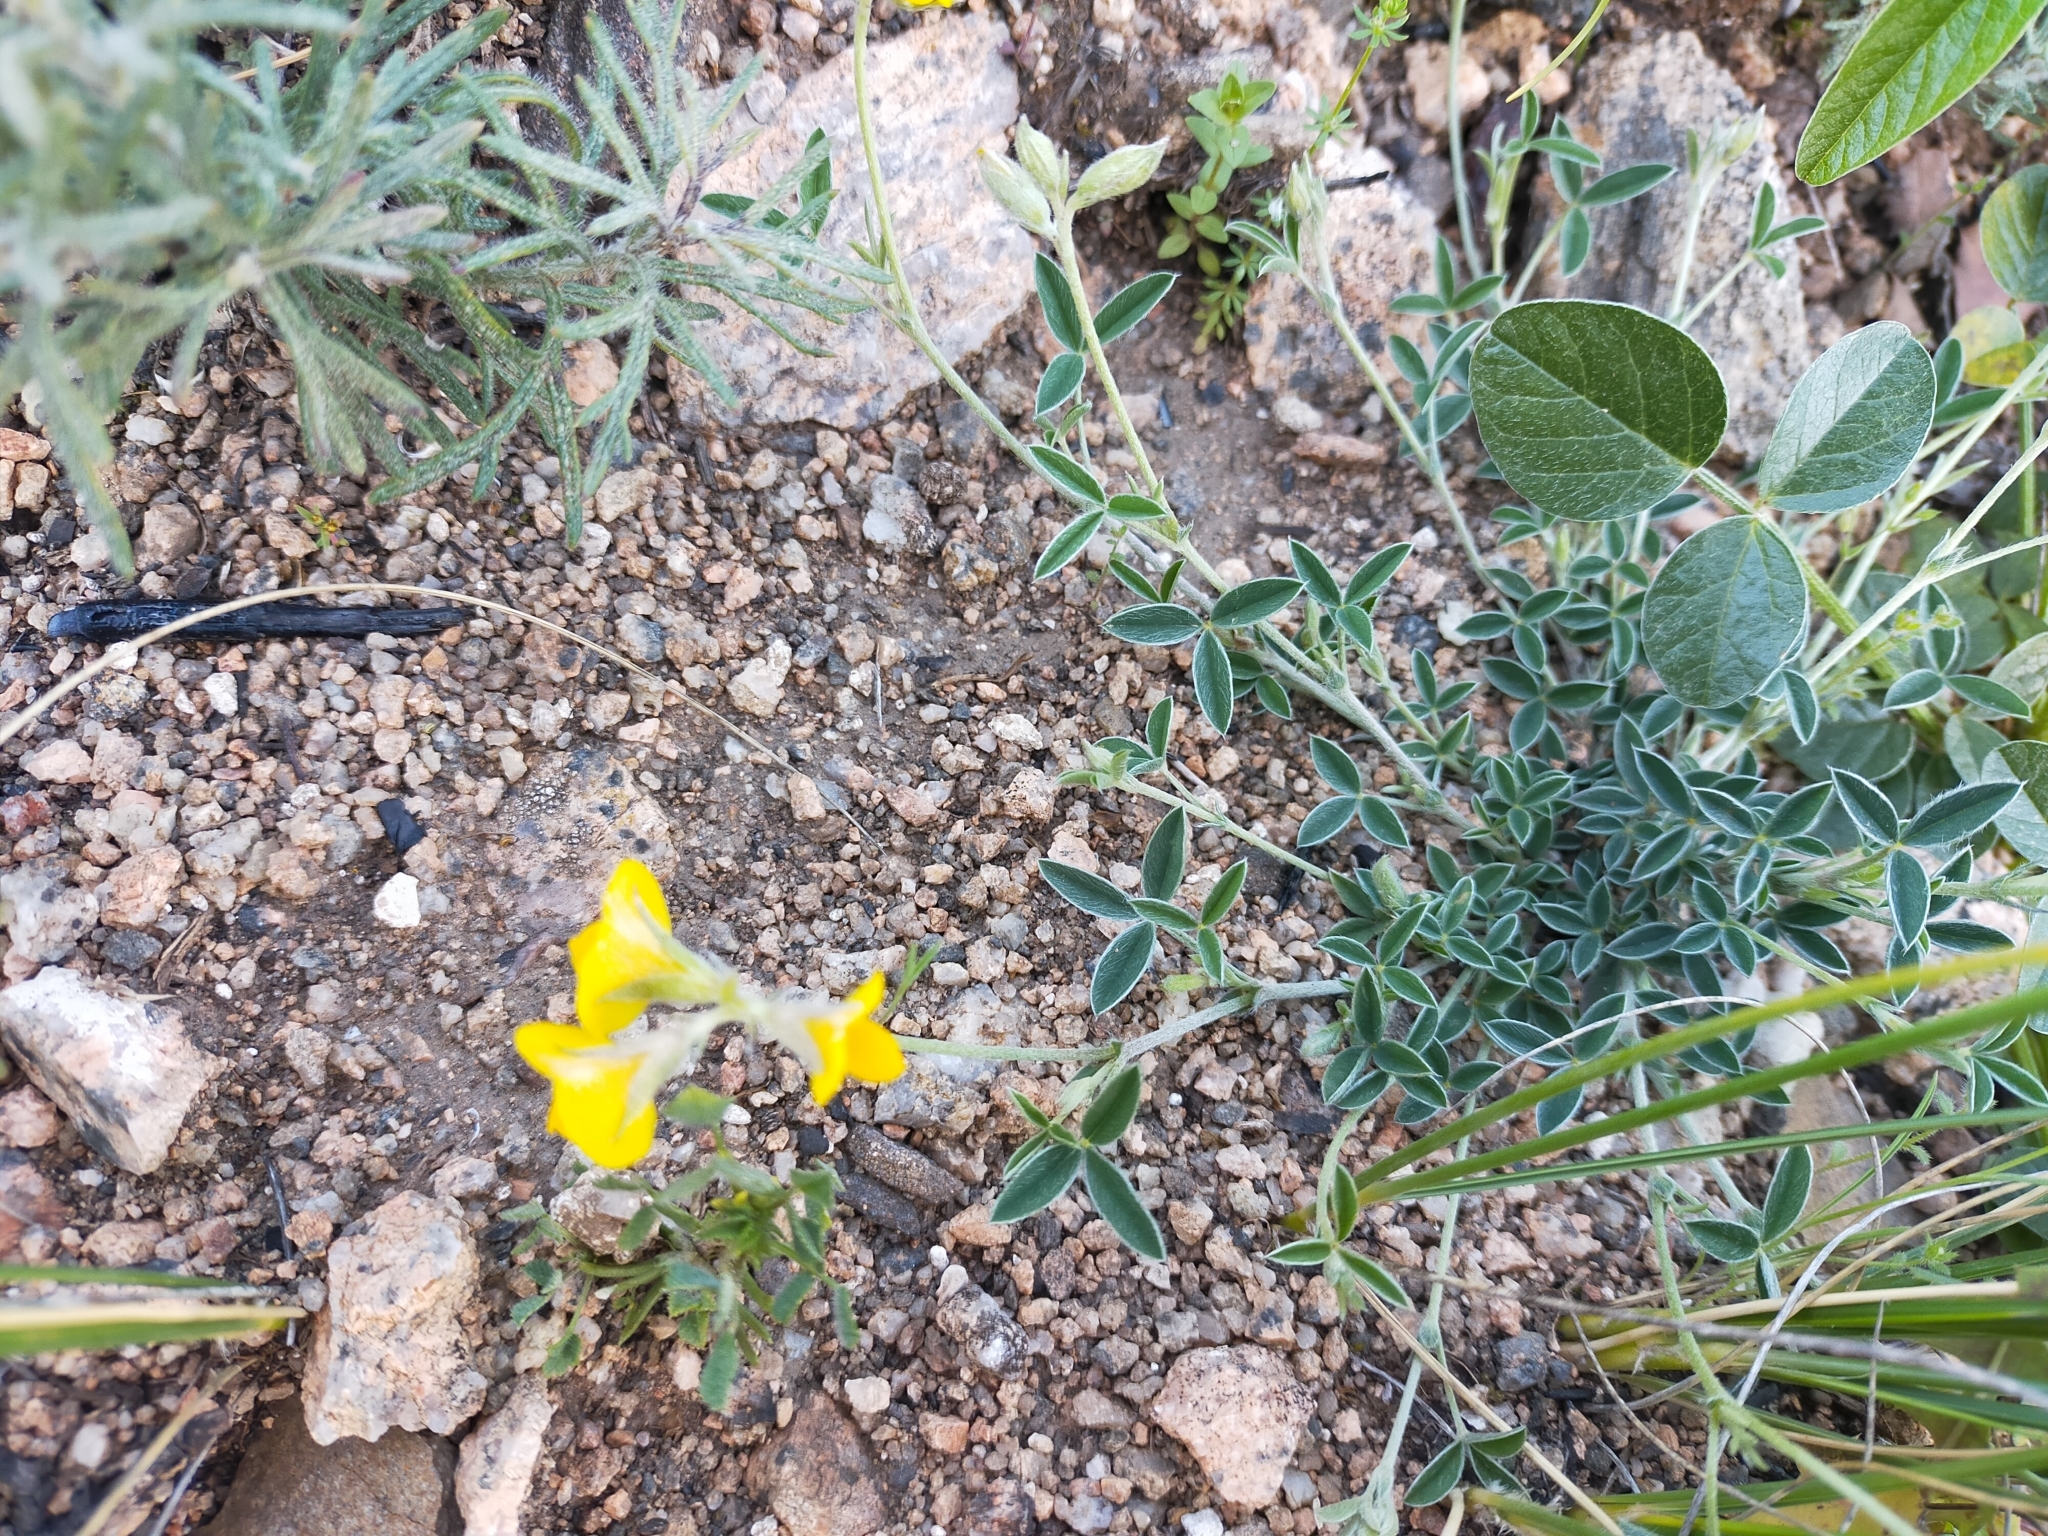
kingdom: Plantae
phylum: Tracheophyta
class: Magnoliopsida
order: Fabales
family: Fabaceae
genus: Argyrolobium
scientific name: Argyrolobium zanonii
